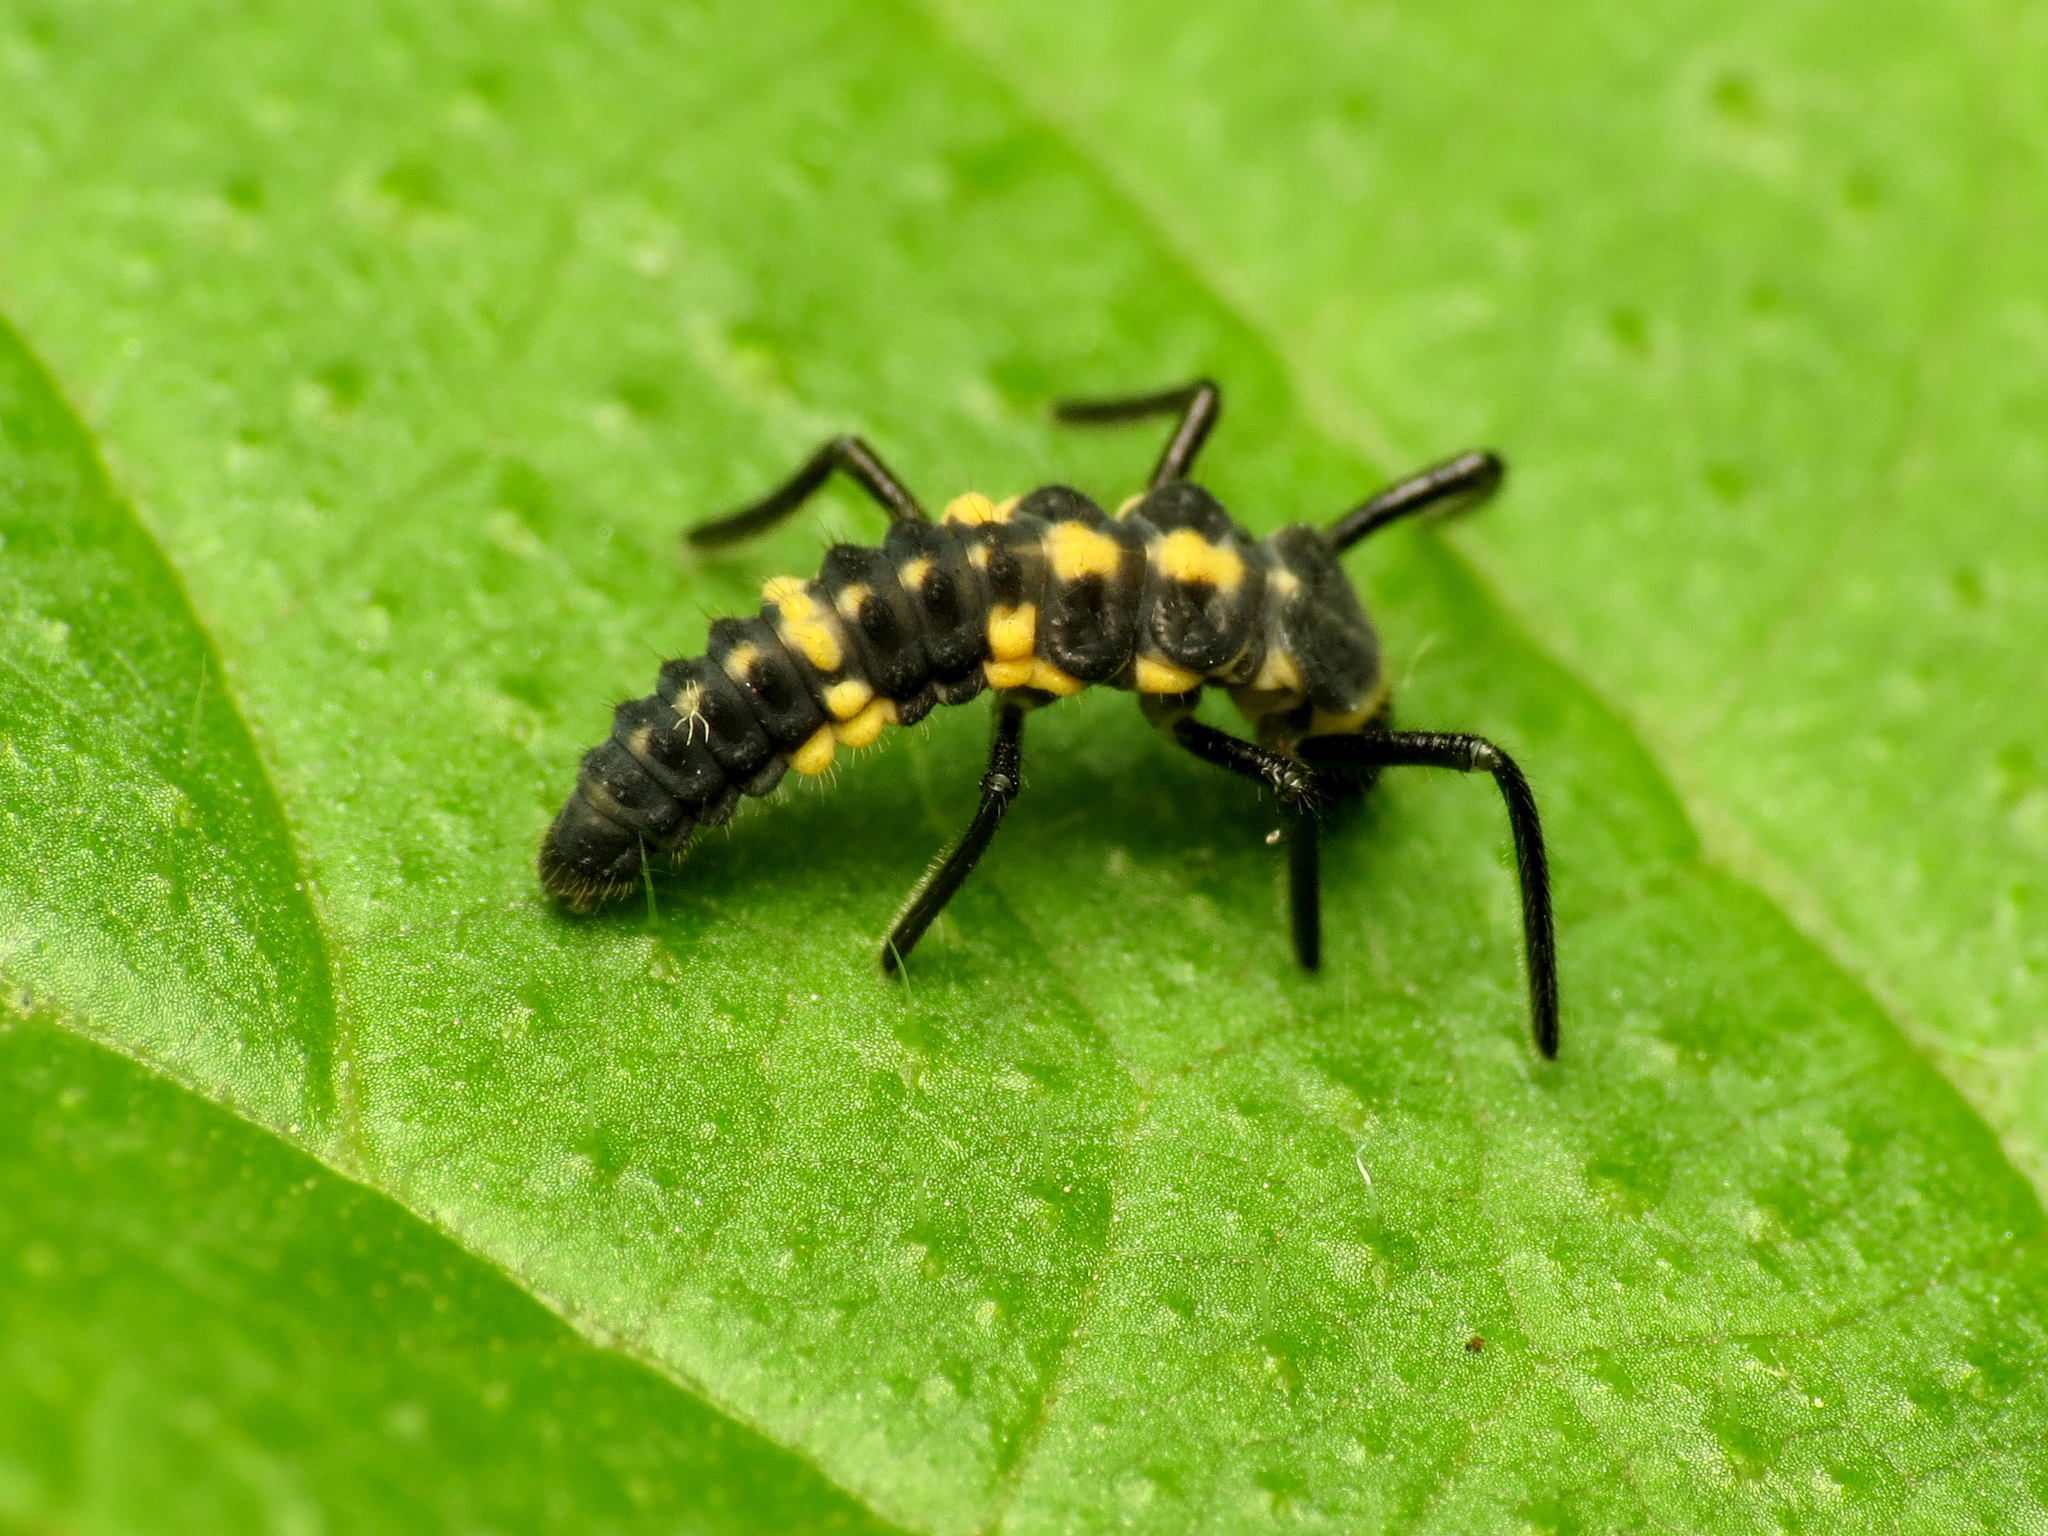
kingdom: Animalia
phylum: Arthropoda
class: Insecta
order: Coleoptera
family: Coccinellidae
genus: Cycloneda
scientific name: Cycloneda munda
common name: Polished lady beetle
